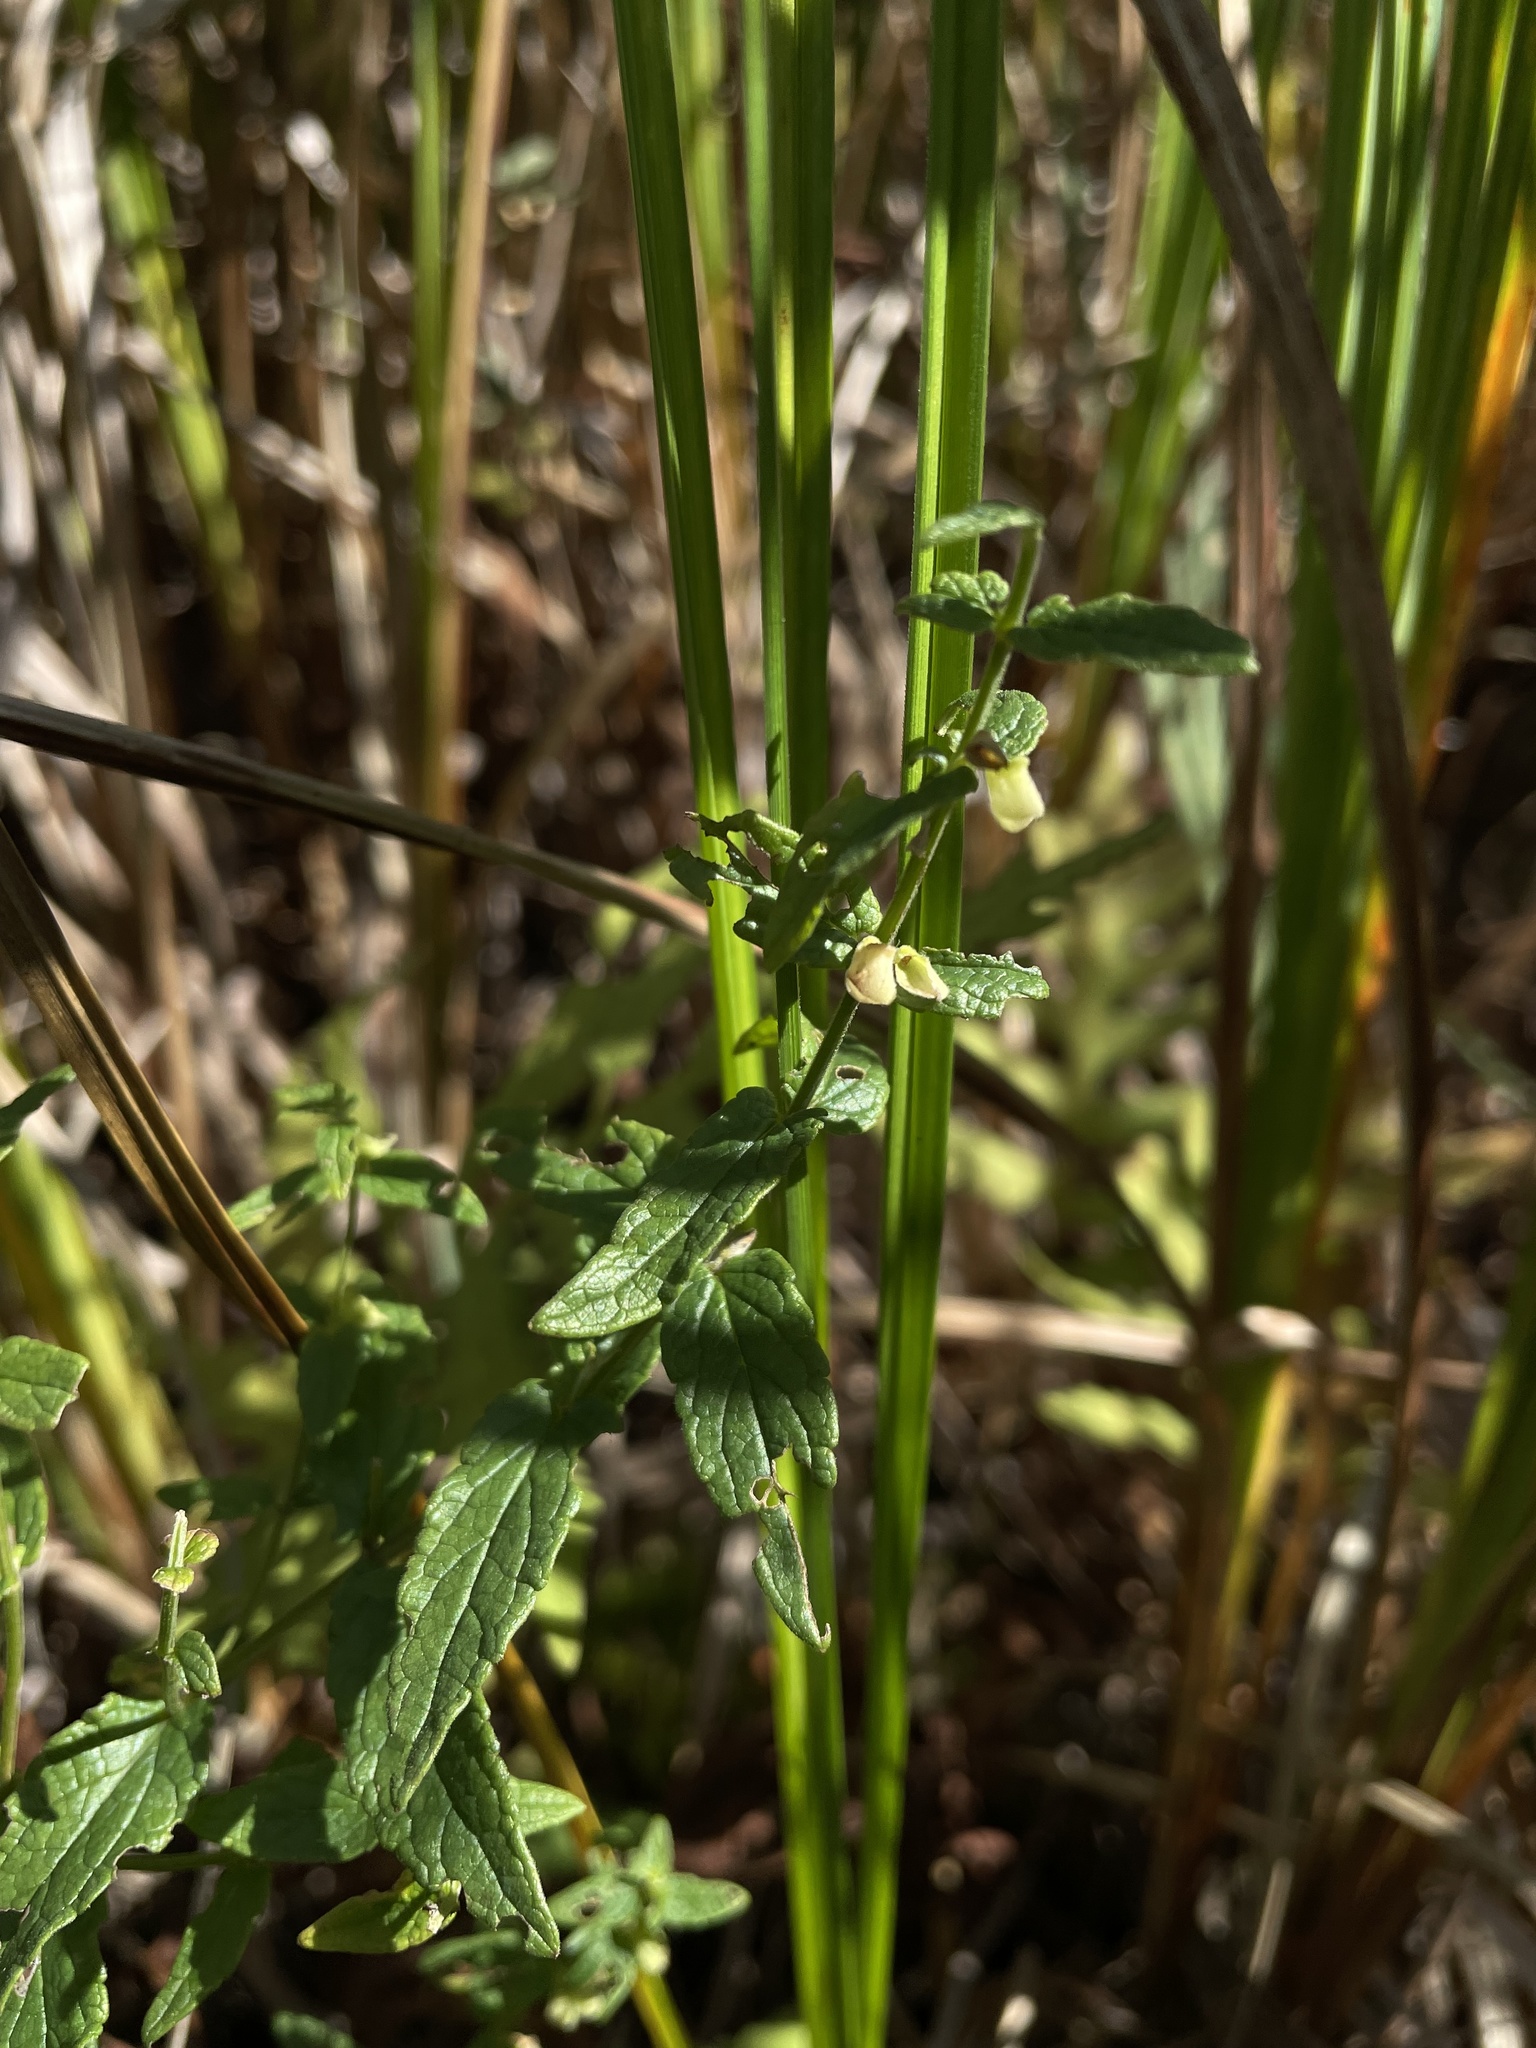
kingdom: Plantae
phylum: Tracheophyta
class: Magnoliopsida
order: Lamiales
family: Lamiaceae
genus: Scutellaria
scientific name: Scutellaria galericulata
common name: Skullcap
